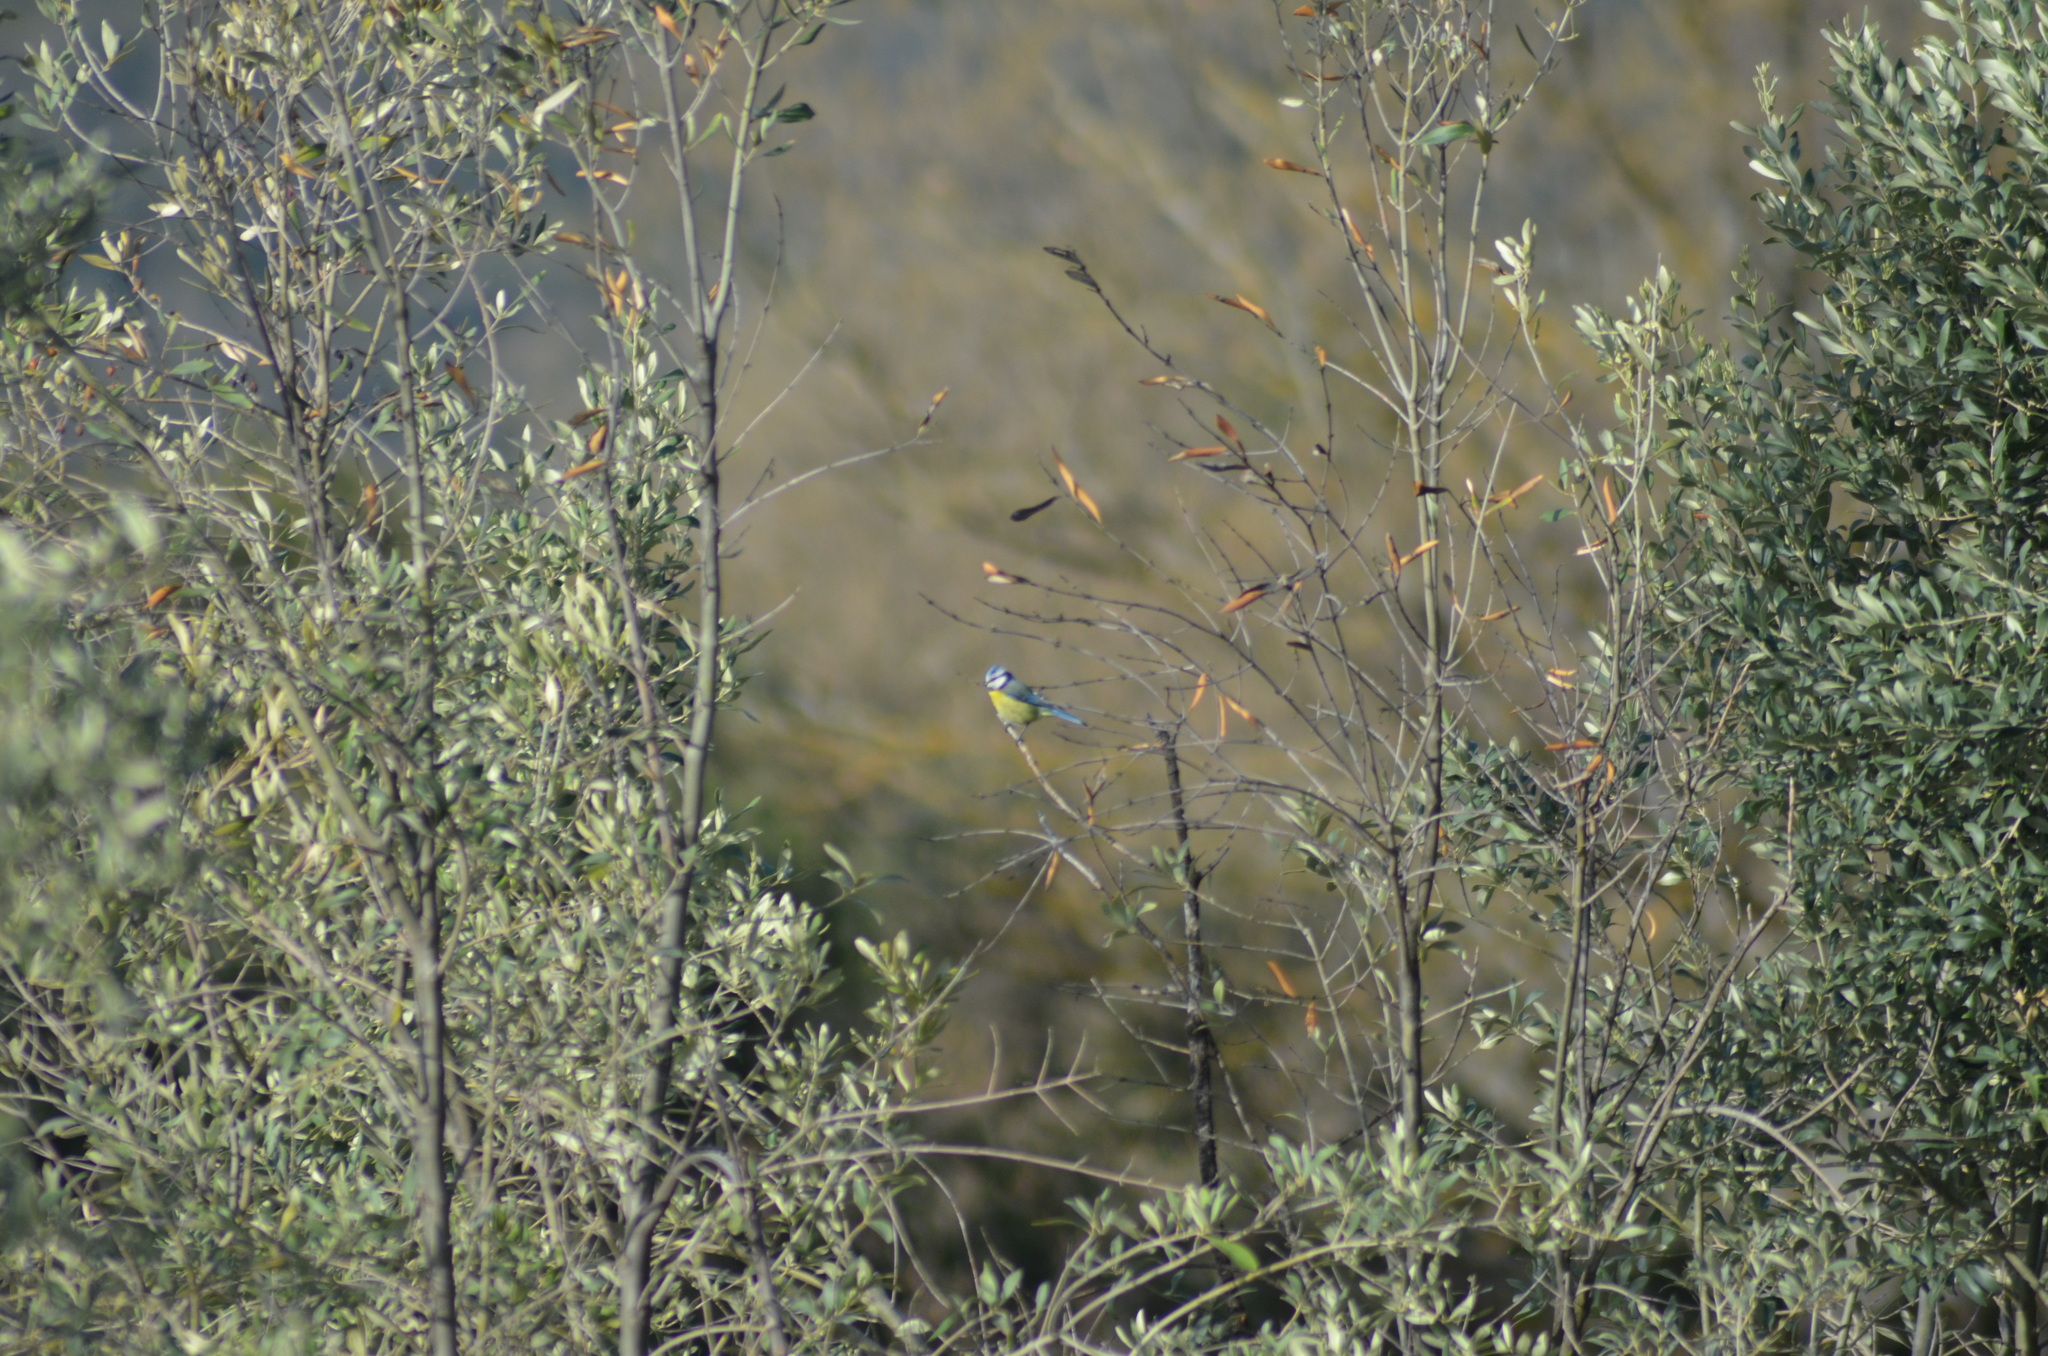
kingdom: Animalia
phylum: Chordata
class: Aves
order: Passeriformes
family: Paridae
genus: Cyanistes
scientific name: Cyanistes caeruleus
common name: Eurasian blue tit
